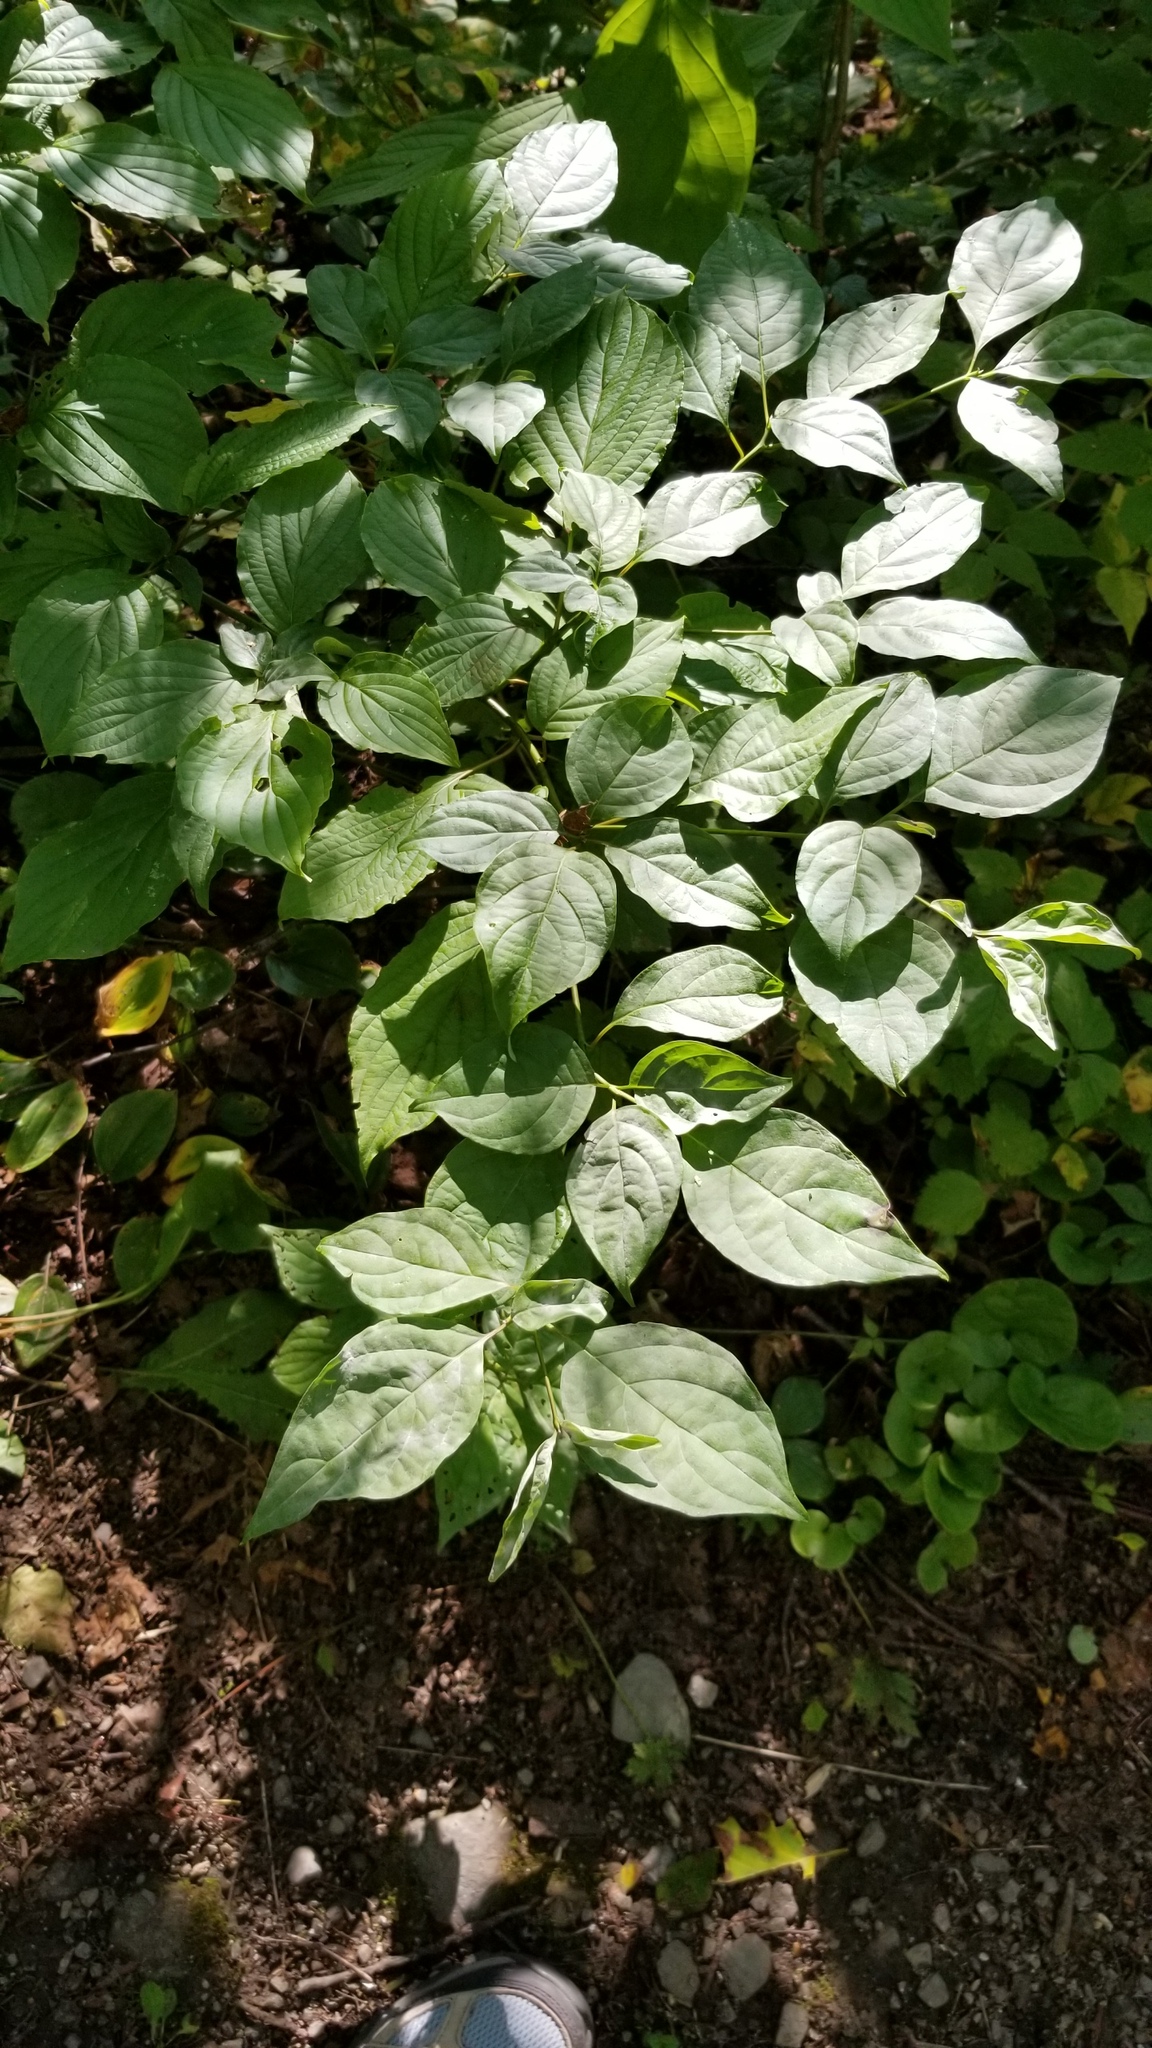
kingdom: Plantae
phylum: Tracheophyta
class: Magnoliopsida
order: Cornales
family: Cornaceae
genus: Cornus
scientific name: Cornus alternifolia
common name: Pagoda dogwood
